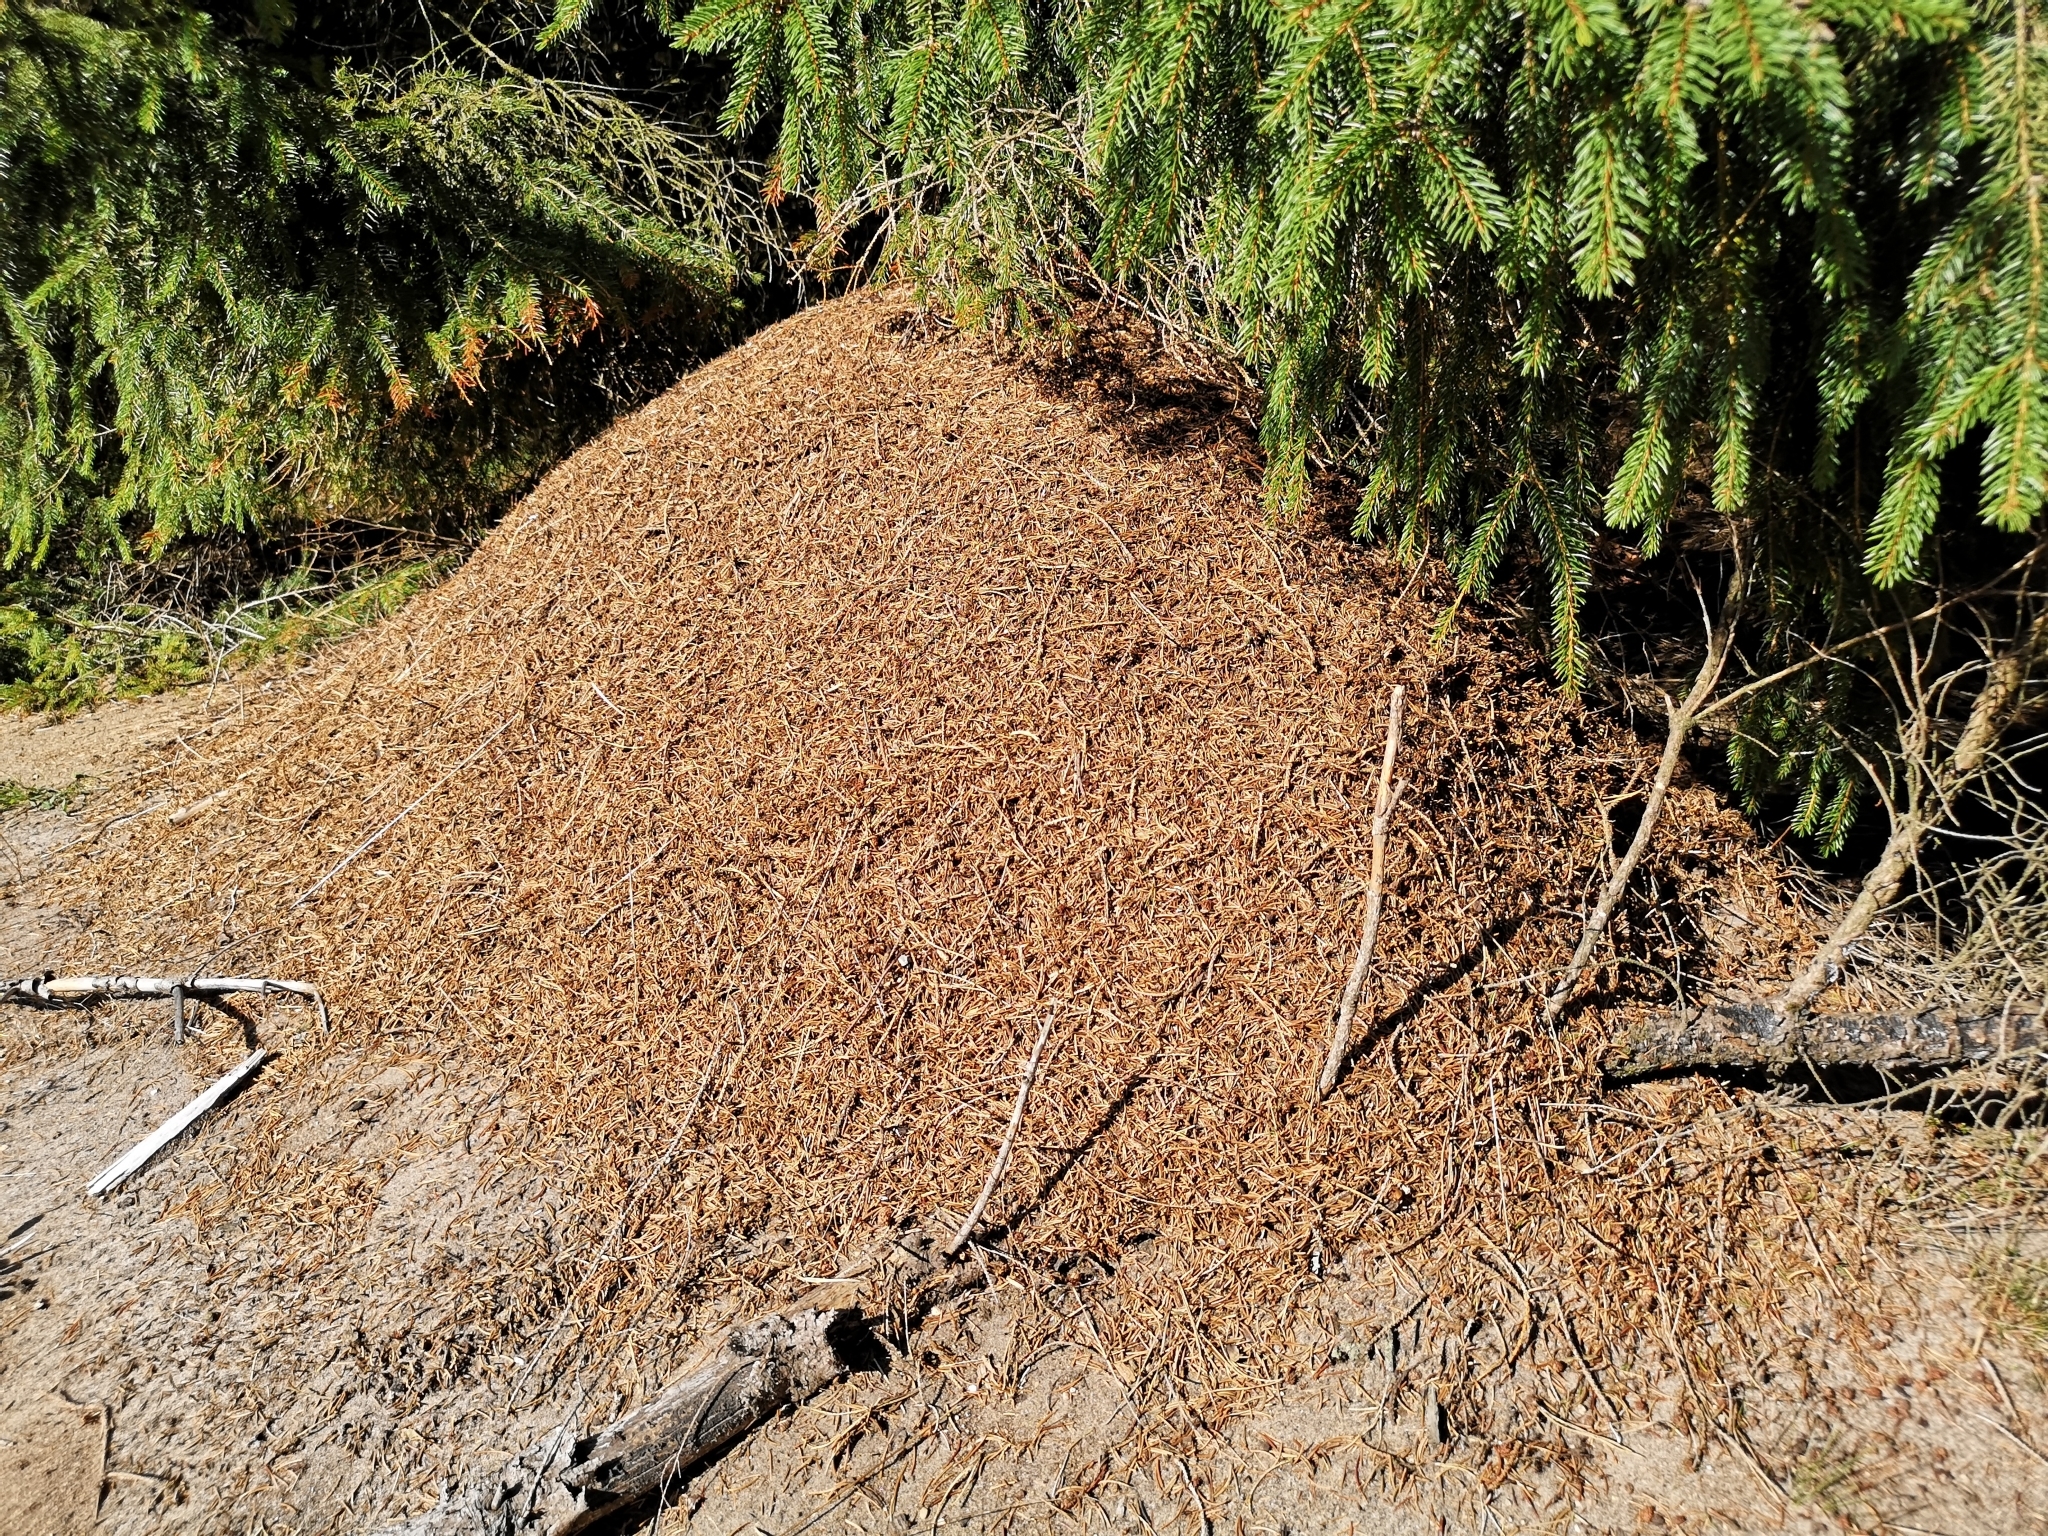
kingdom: Animalia
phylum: Arthropoda
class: Insecta
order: Hymenoptera
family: Formicidae
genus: Formica
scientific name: Formica rufa
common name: Red wood ant
